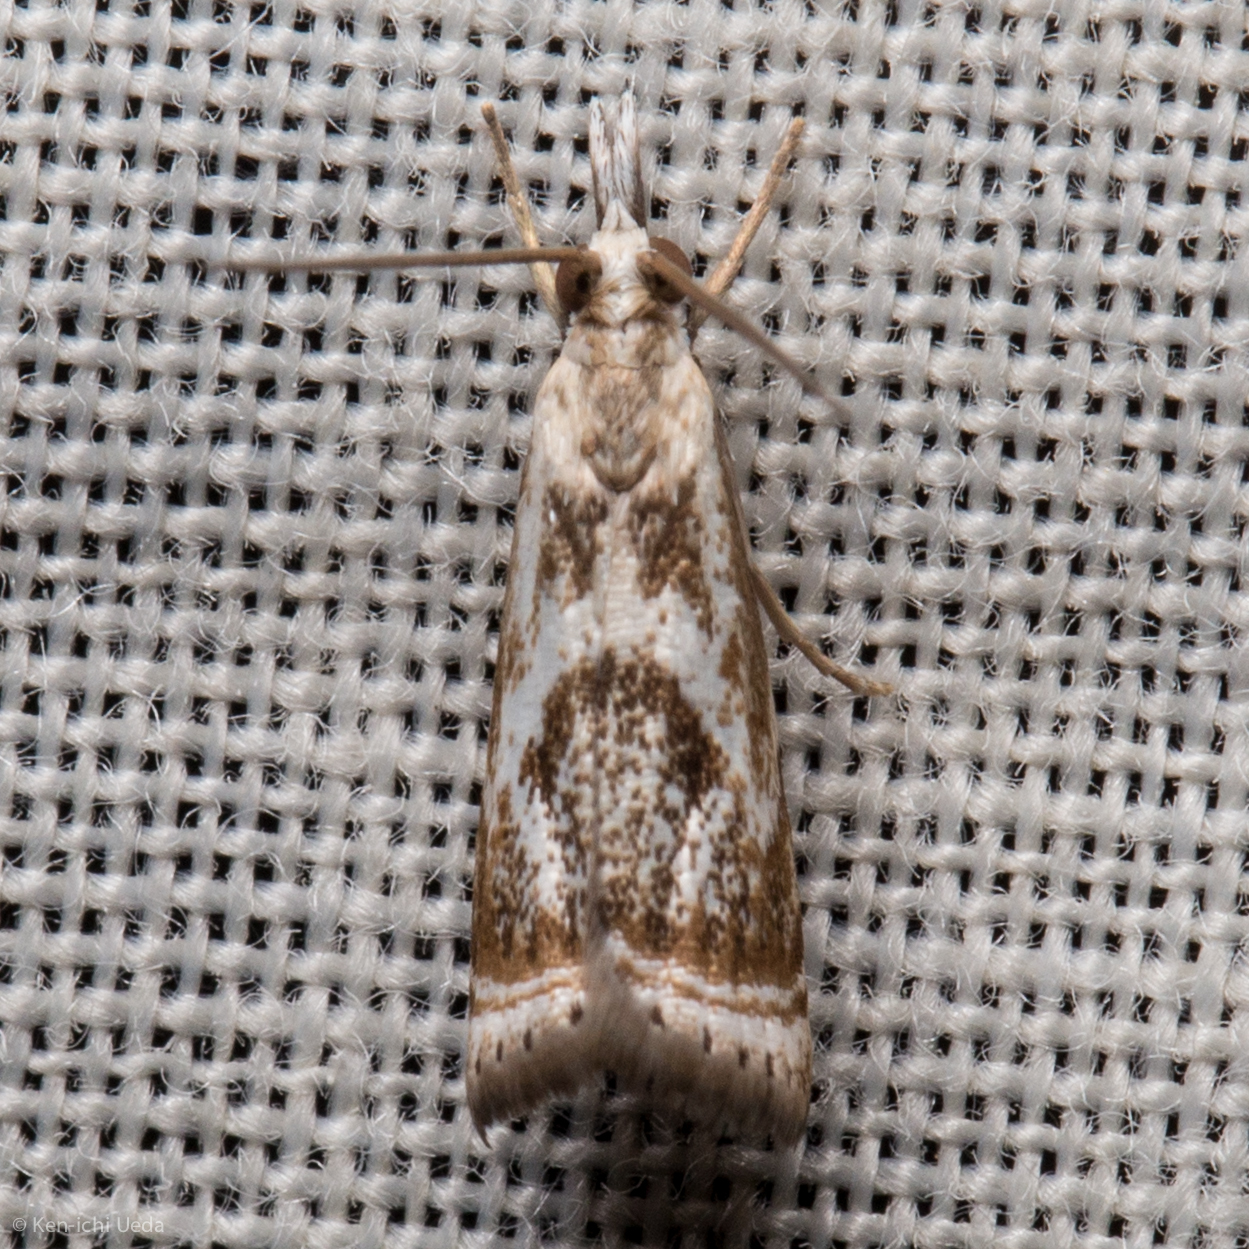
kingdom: Animalia
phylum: Arthropoda
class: Insecta
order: Lepidoptera
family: Crambidae
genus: Microcrambus
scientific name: Microcrambus elegans
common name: Elegant grass-veneer
